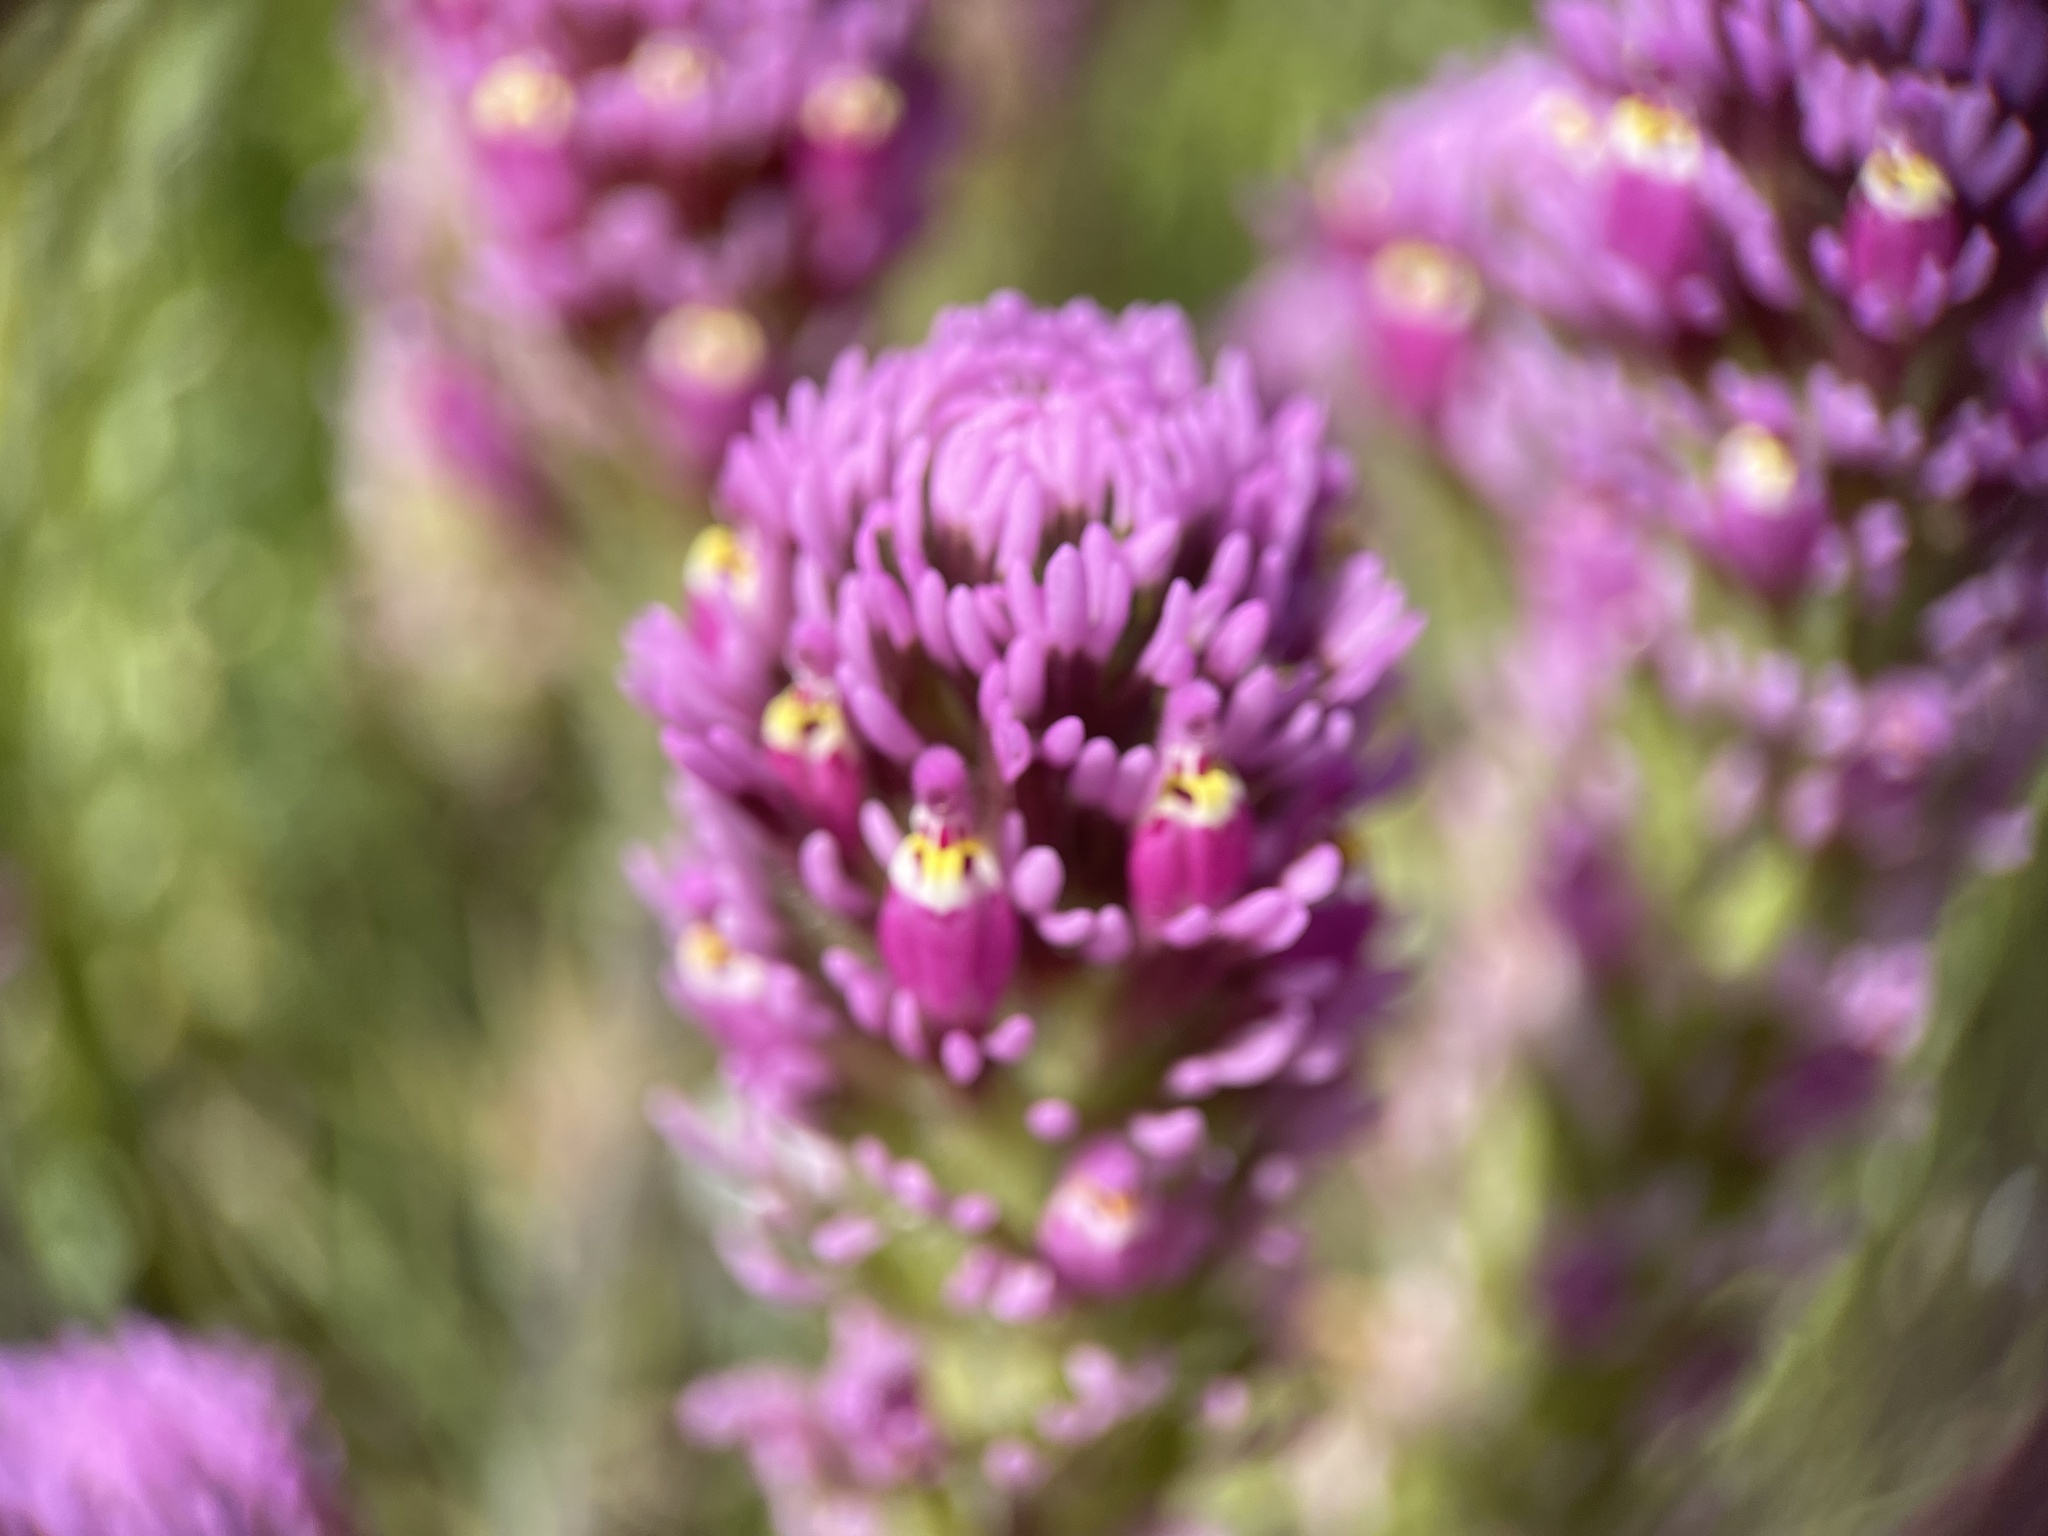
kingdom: Plantae
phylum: Tracheophyta
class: Magnoliopsida
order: Lamiales
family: Orobanchaceae
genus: Castilleja
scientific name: Castilleja exserta
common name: Purple owl-clover
